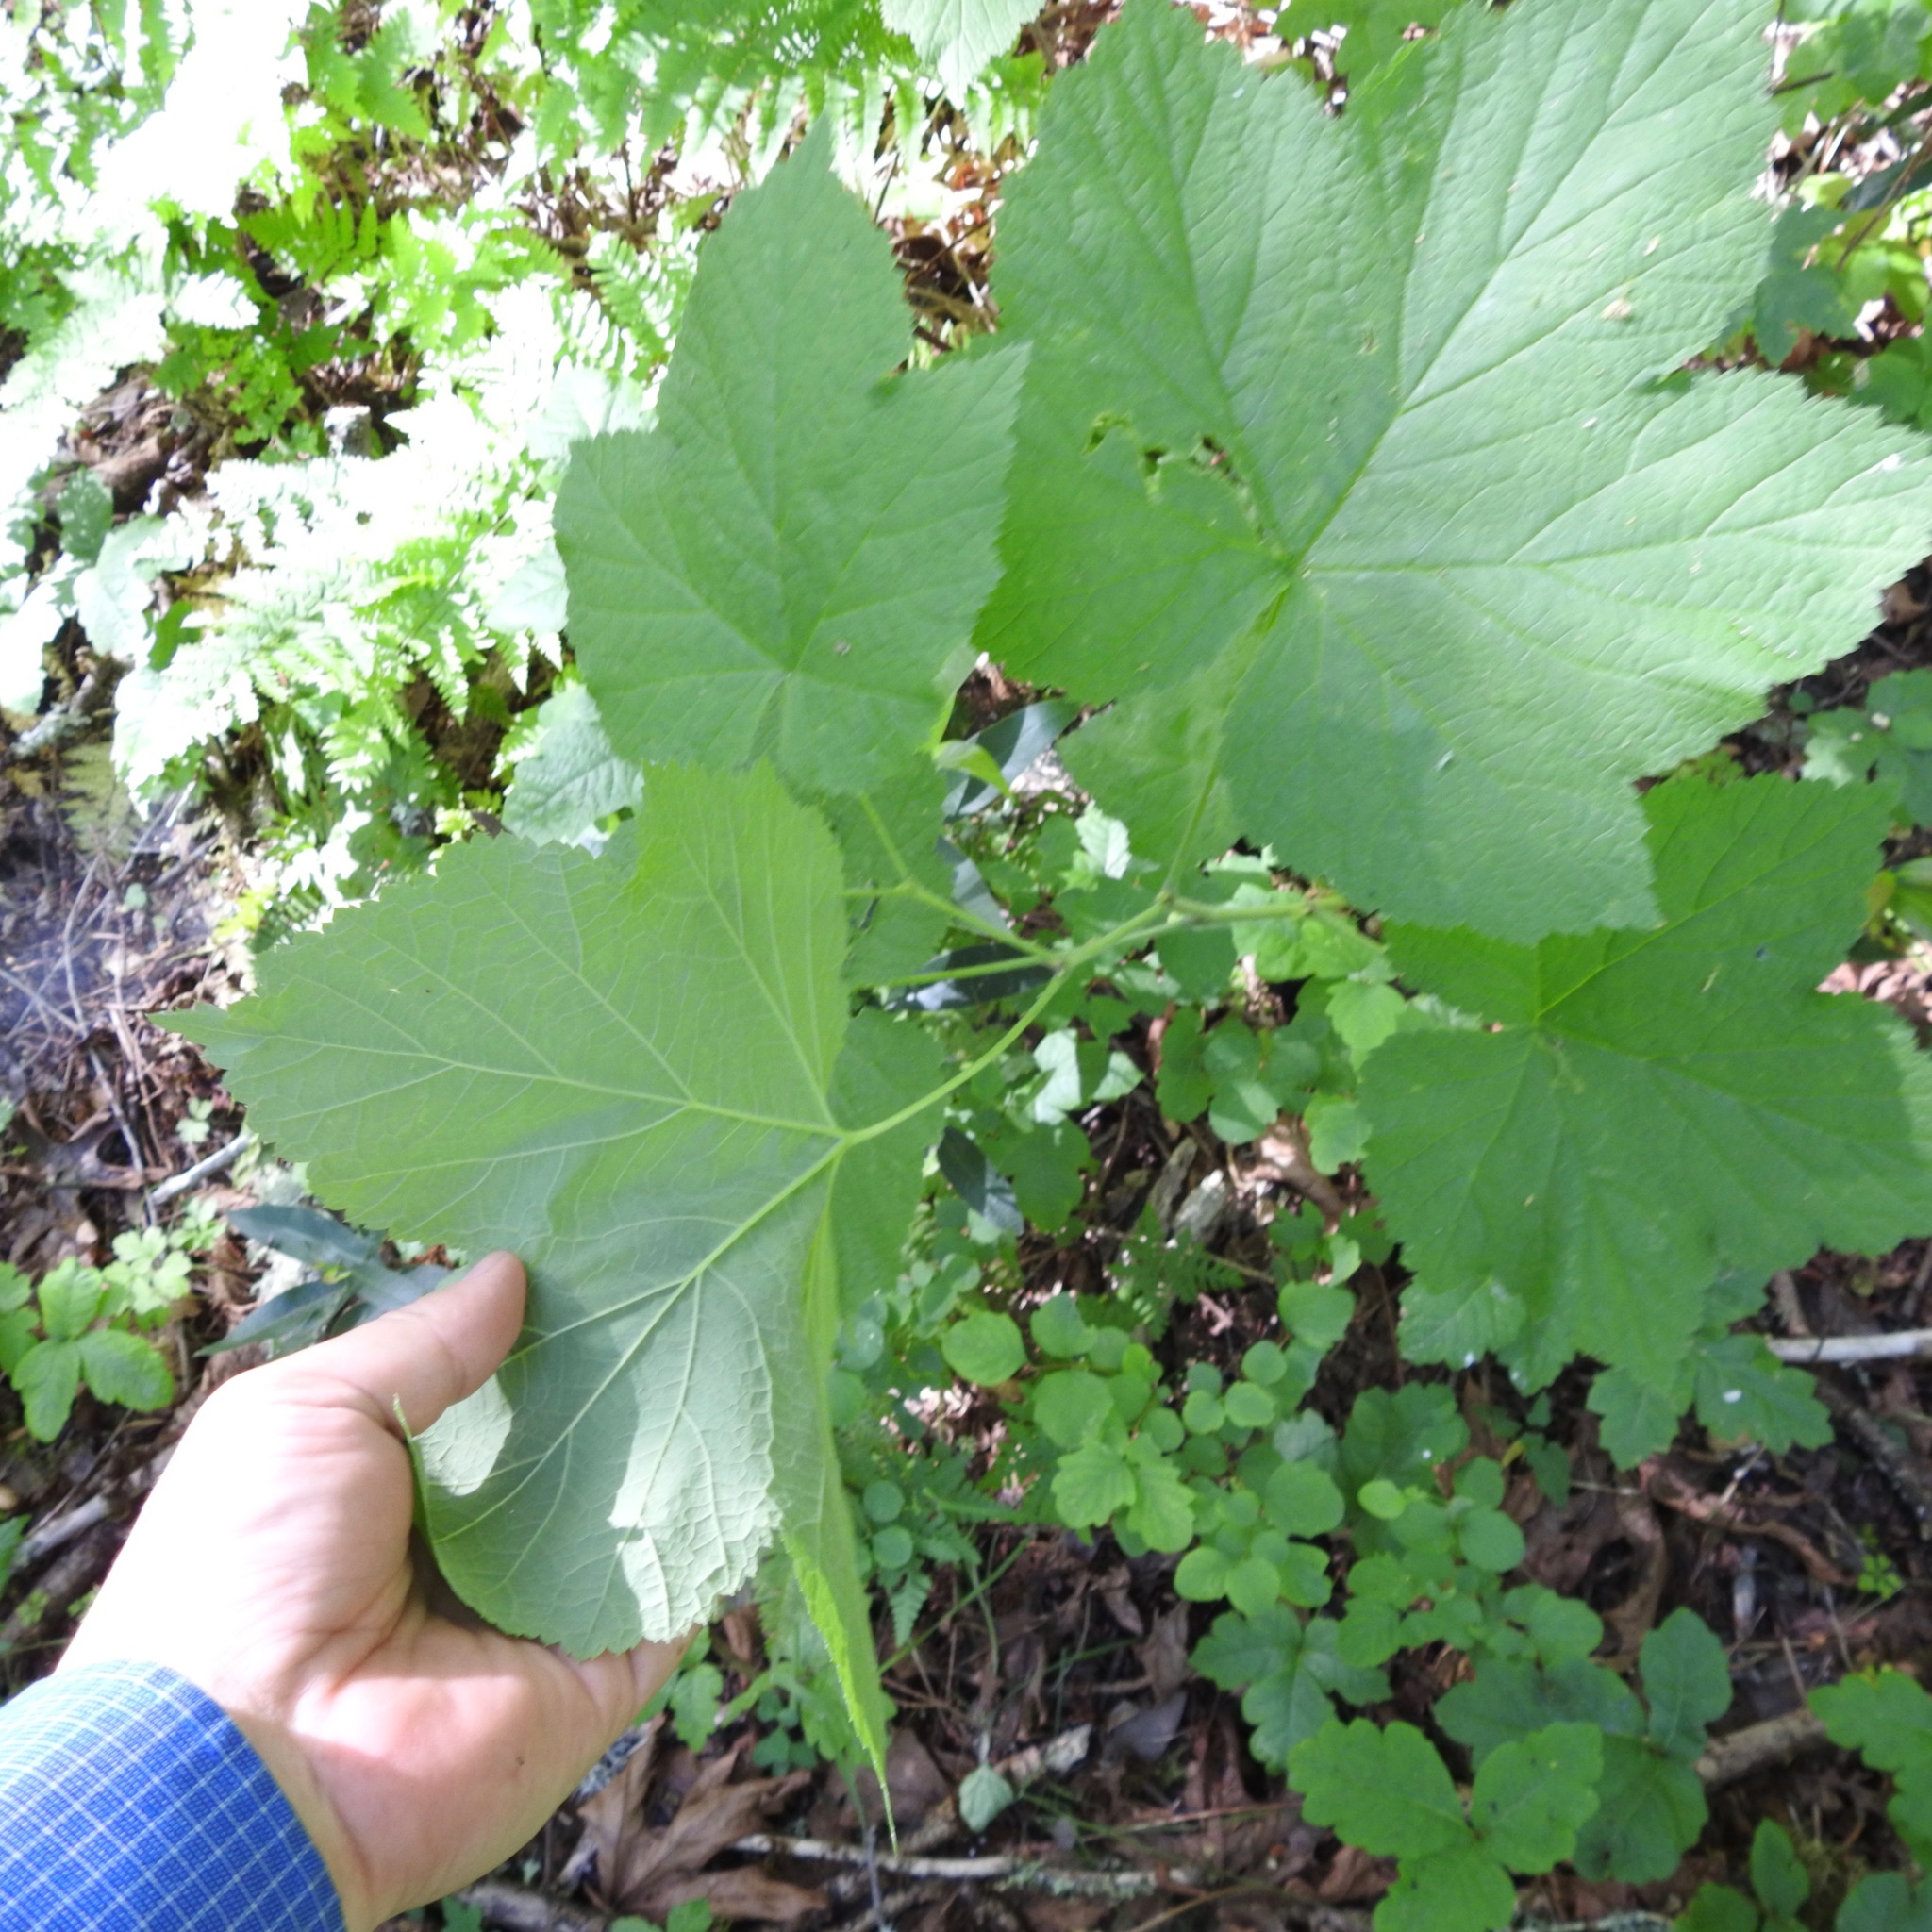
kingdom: Plantae
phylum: Tracheophyta
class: Magnoliopsida
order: Rosales
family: Rosaceae
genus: Rubus
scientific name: Rubus parviflorus
